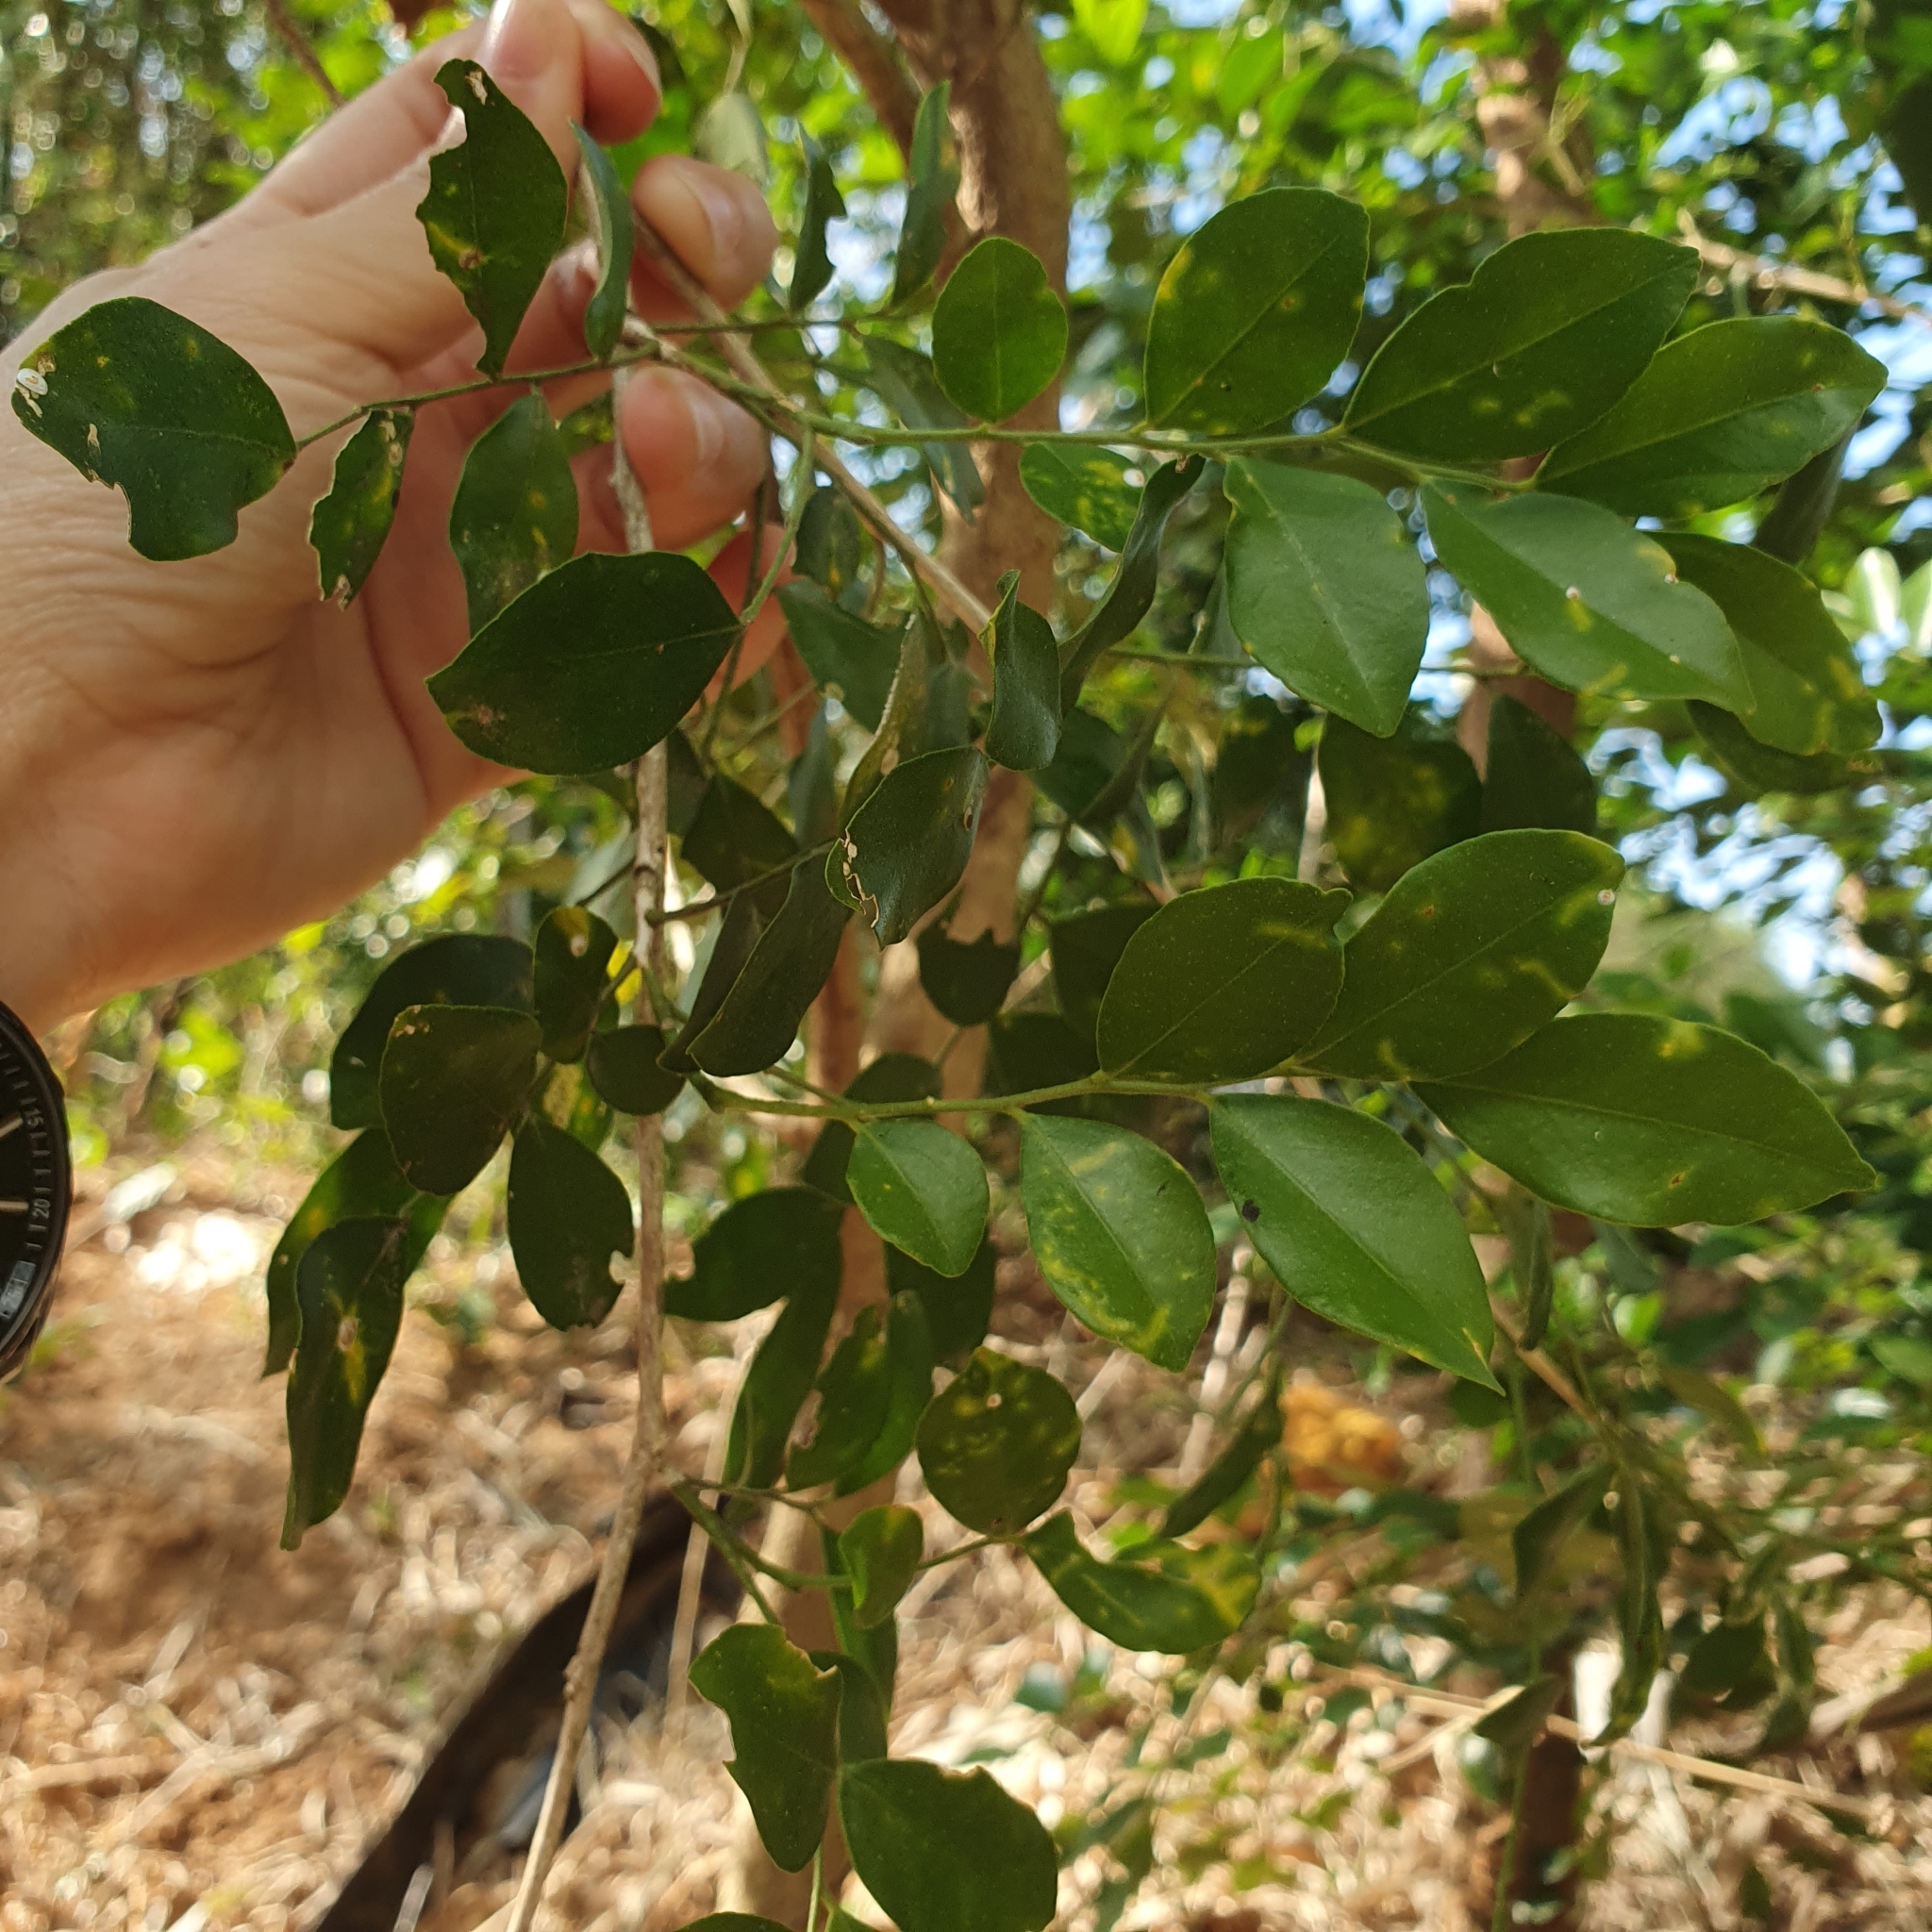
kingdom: Plantae
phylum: Tracheophyta
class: Magnoliopsida
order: Sapindales
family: Rutaceae
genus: Murraya
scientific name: Murraya paniculata
